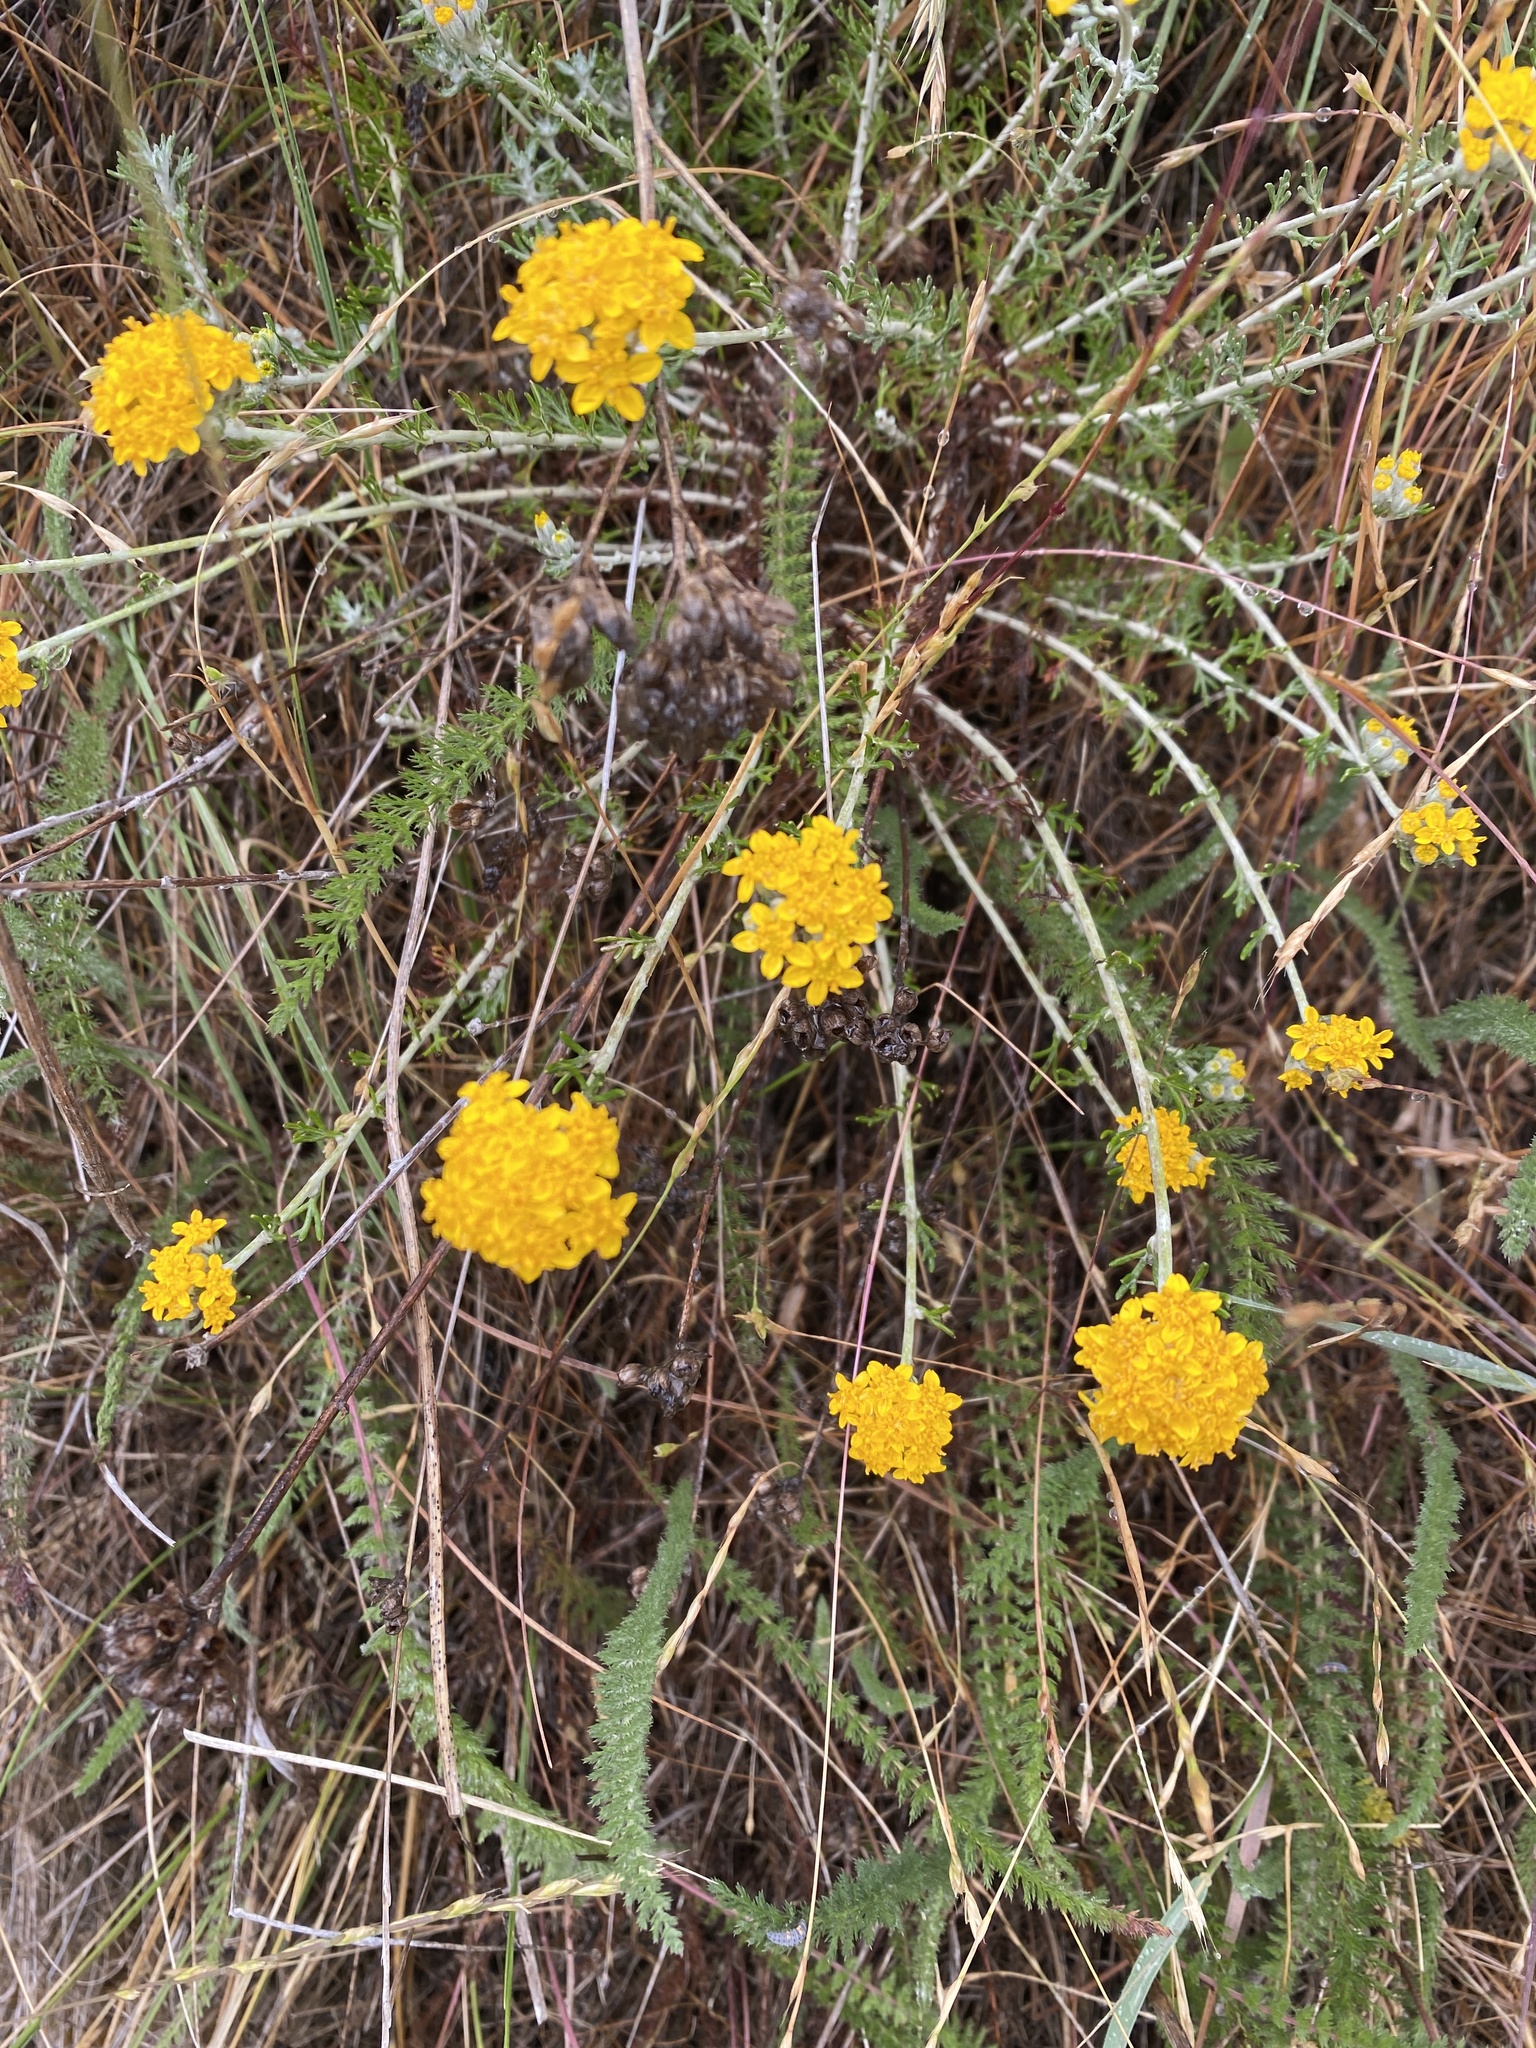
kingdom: Plantae
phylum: Tracheophyta
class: Magnoliopsida
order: Asterales
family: Asteraceae
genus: Eriophyllum
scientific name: Eriophyllum confertiflorum
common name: Golden-yarrow
